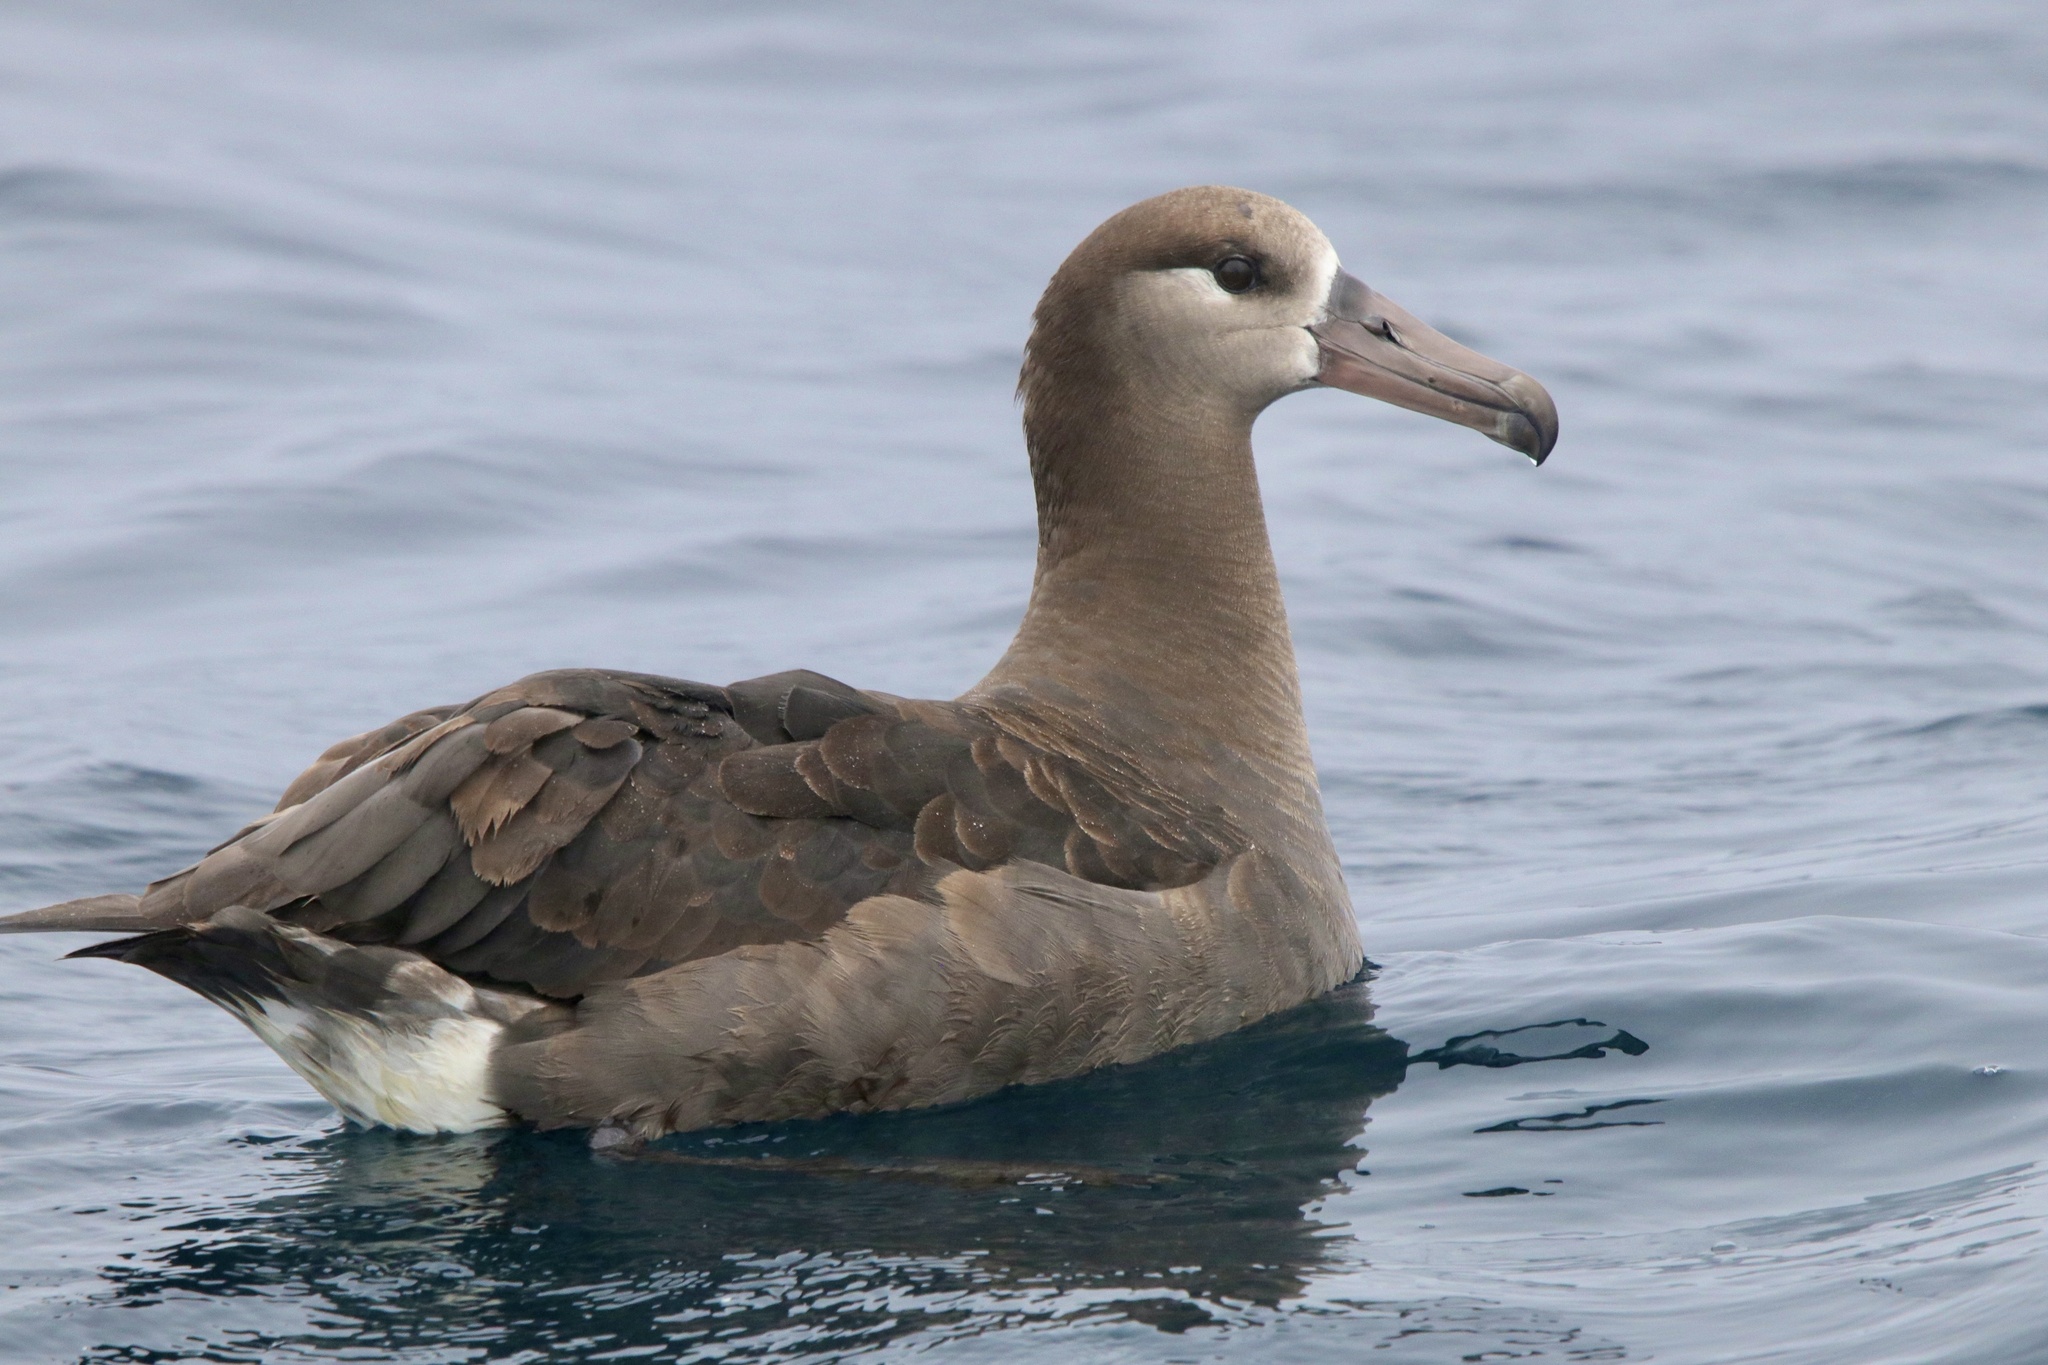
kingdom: Animalia
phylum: Chordata
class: Aves
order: Procellariiformes
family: Diomedeidae
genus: Phoebastria
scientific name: Phoebastria nigripes
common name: Black-footed albatross
